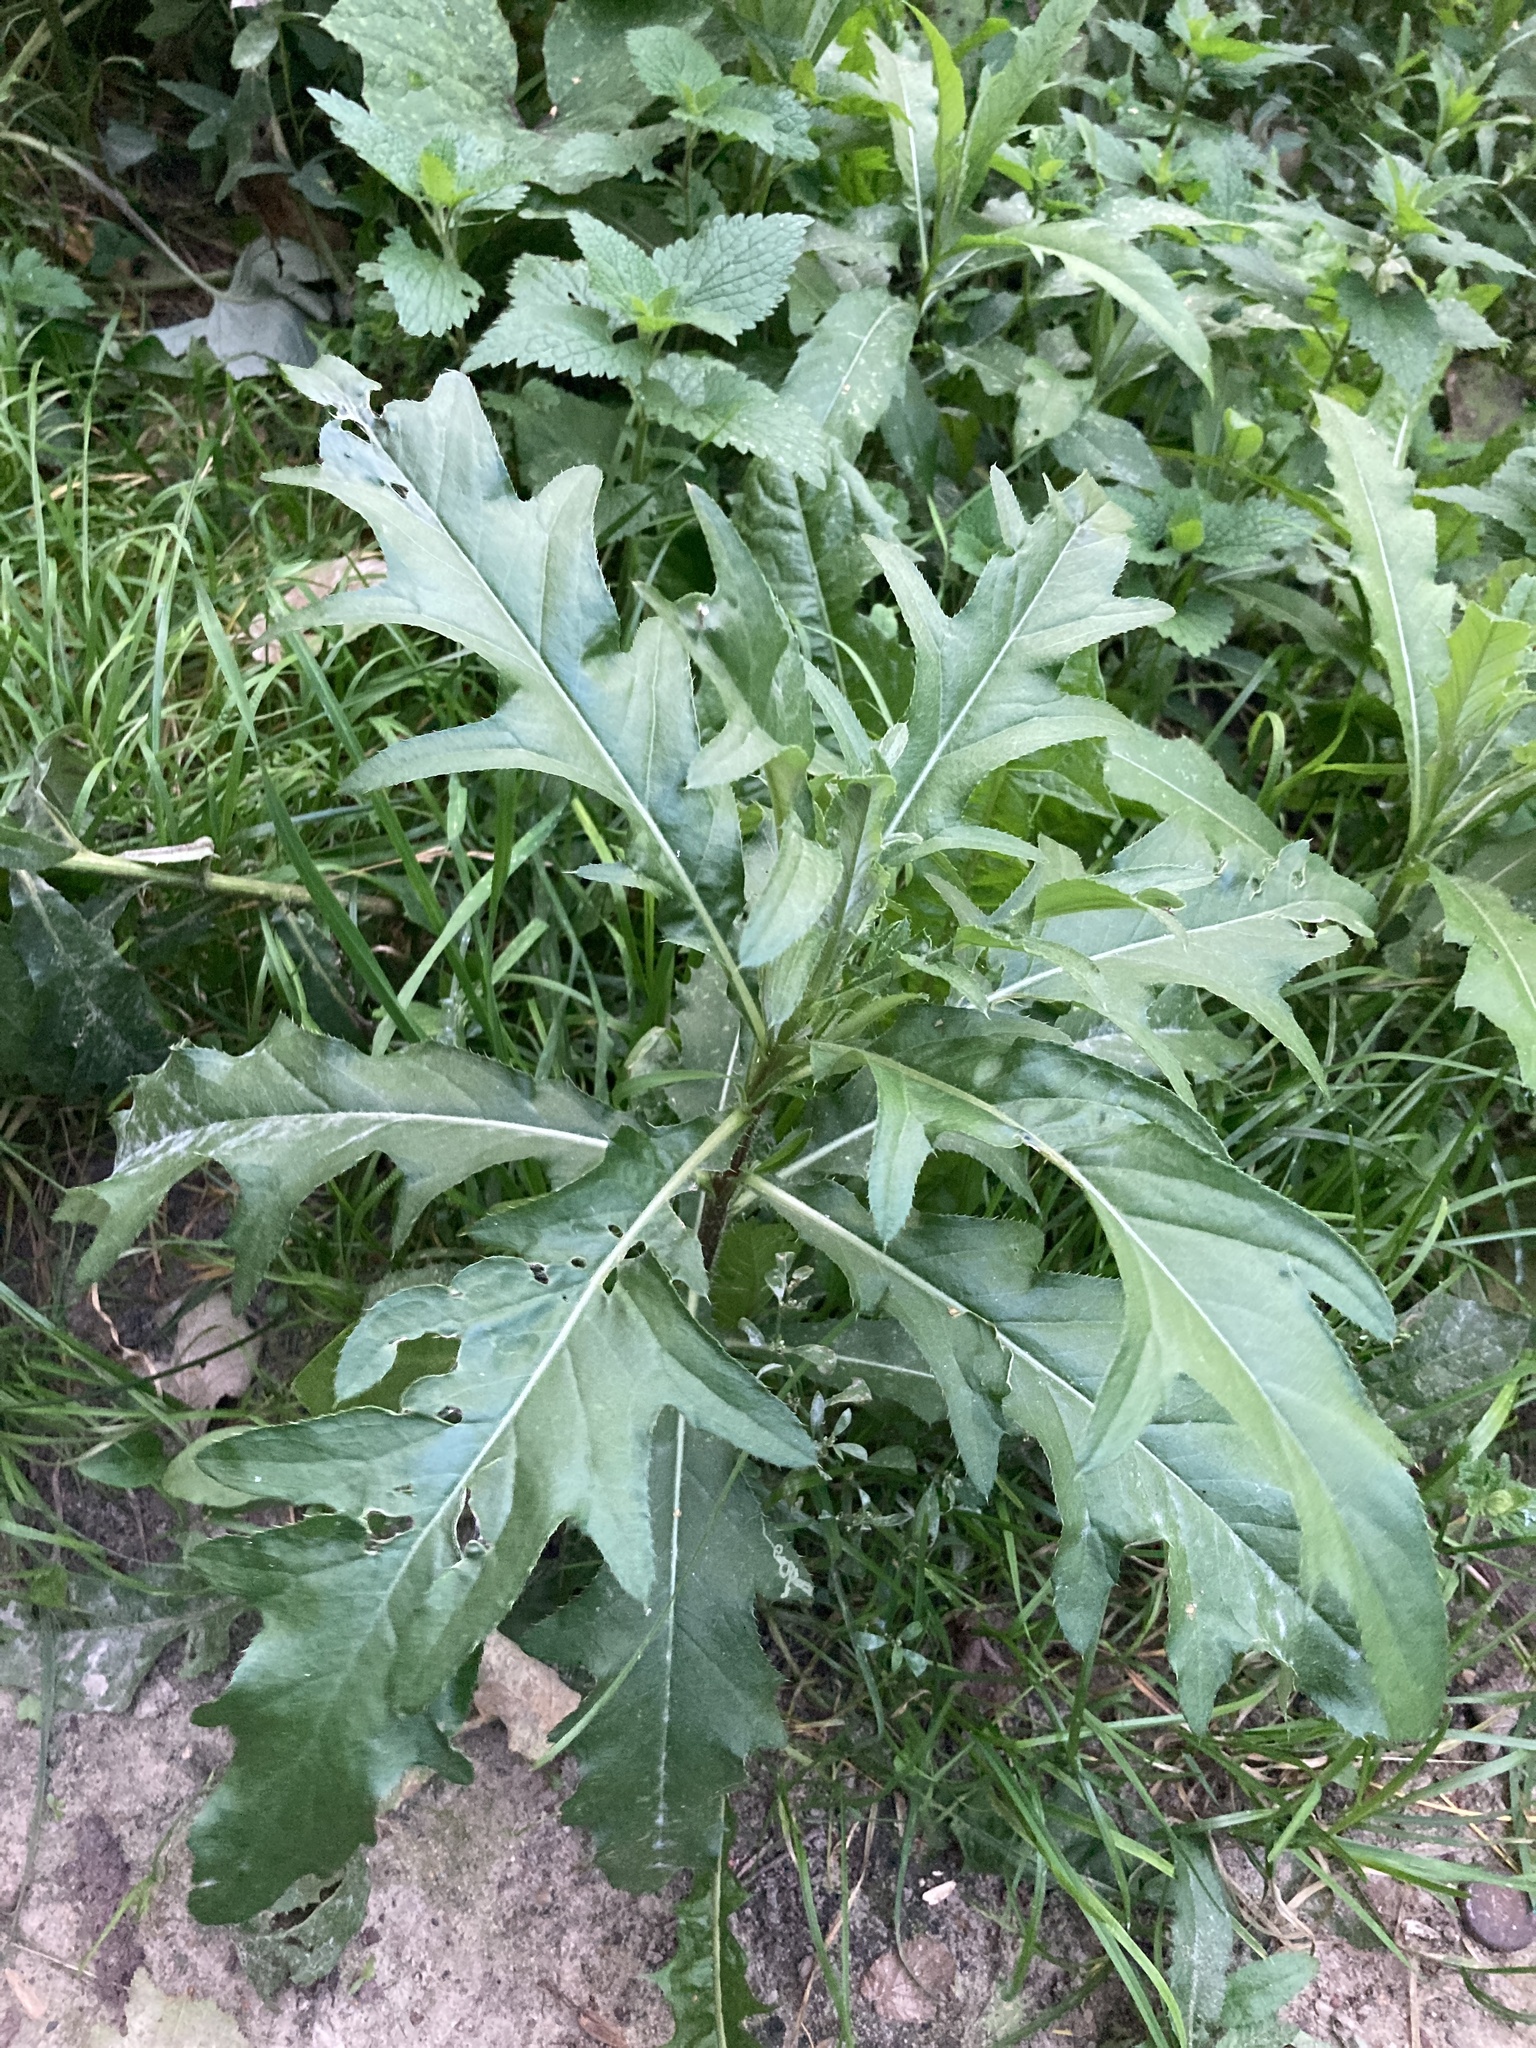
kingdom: Plantae
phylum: Tracheophyta
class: Magnoliopsida
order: Asterales
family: Asteraceae
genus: Cirsium
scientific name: Cirsium arvense
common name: Creeping thistle
